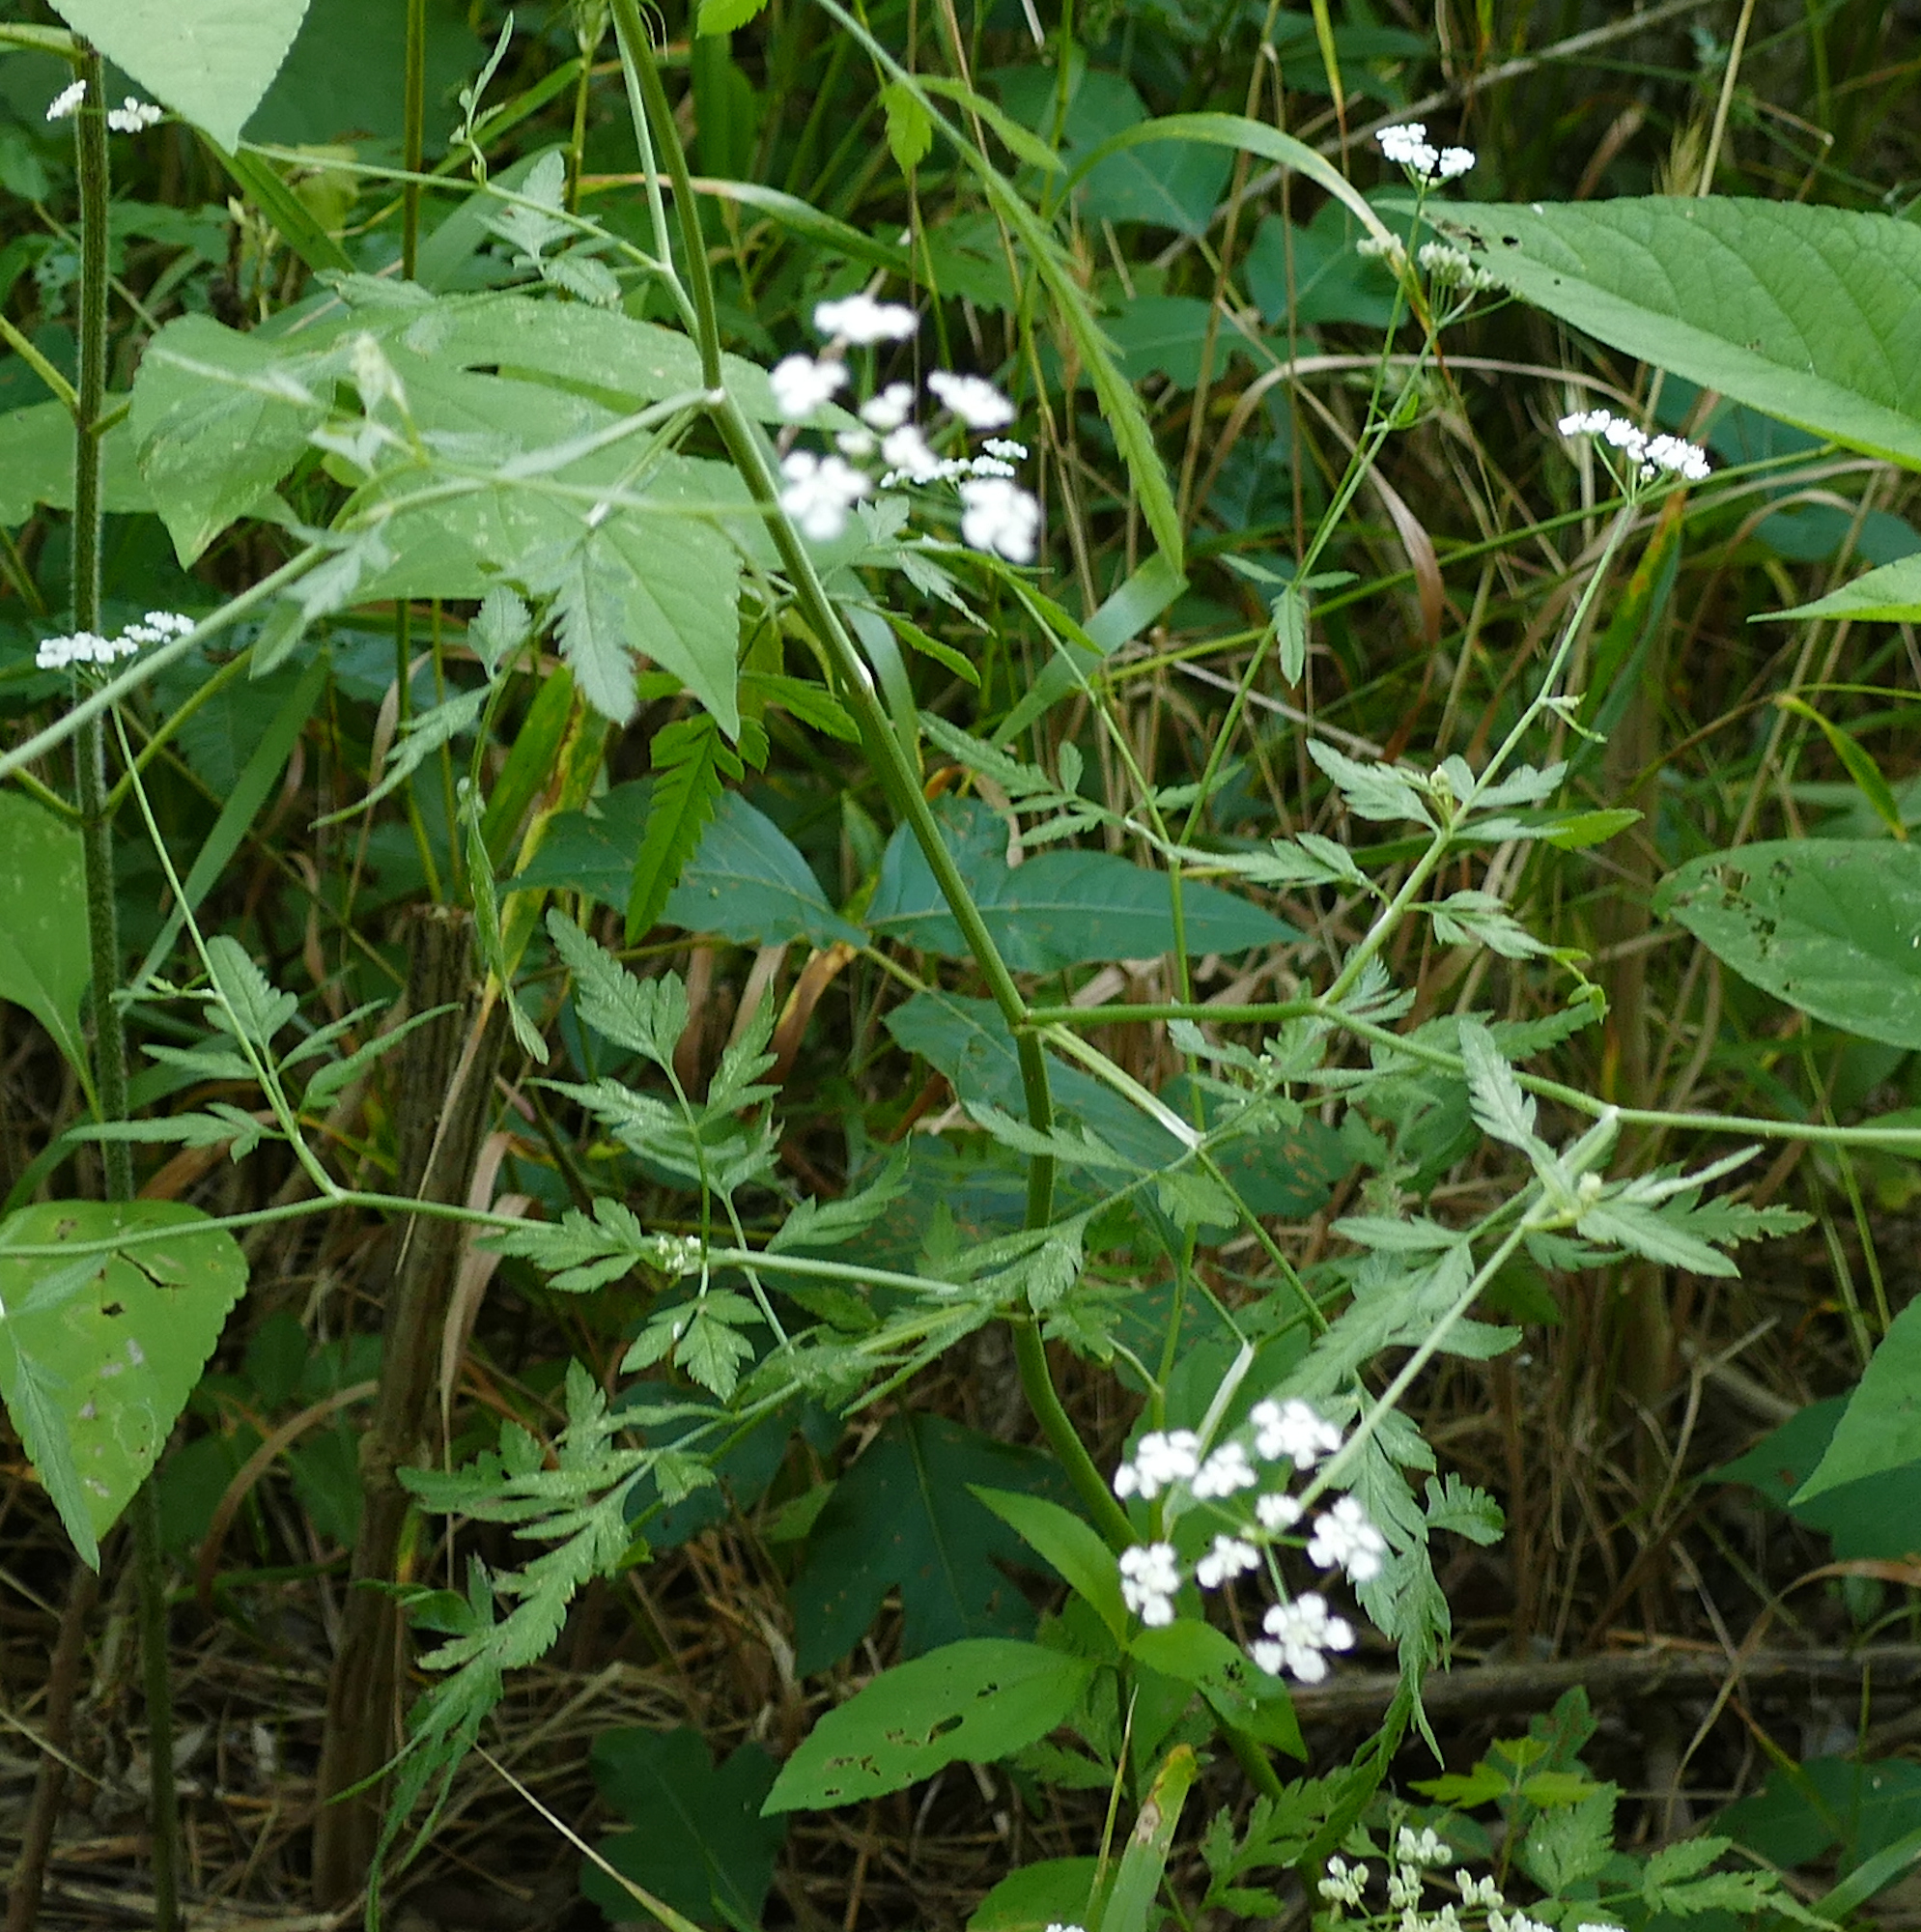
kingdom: Plantae
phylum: Tracheophyta
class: Magnoliopsida
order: Apiales
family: Apiaceae
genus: Torilis
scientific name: Torilis arvensis
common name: Spreading hedge-parsley
